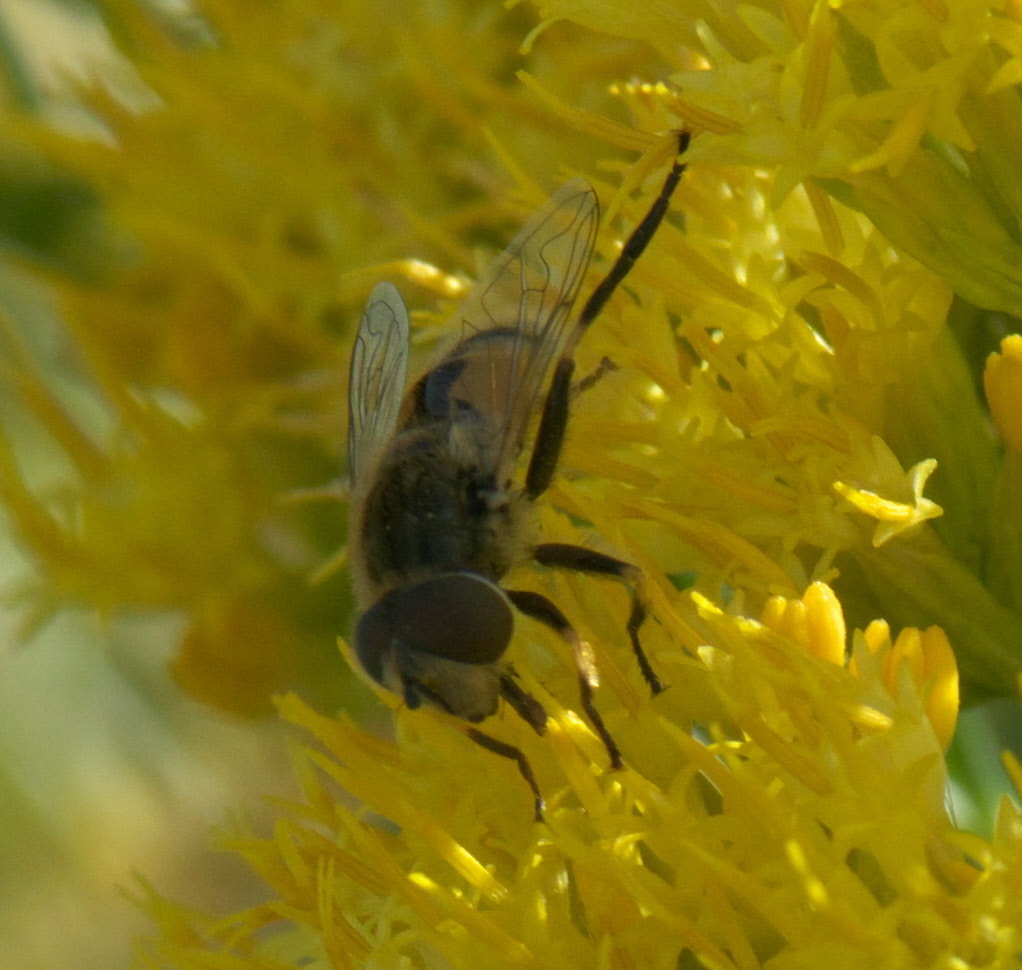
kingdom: Animalia
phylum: Arthropoda
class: Insecta
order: Diptera
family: Syrphidae
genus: Eristalis
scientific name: Eristalis arbustorum
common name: Hover fly
